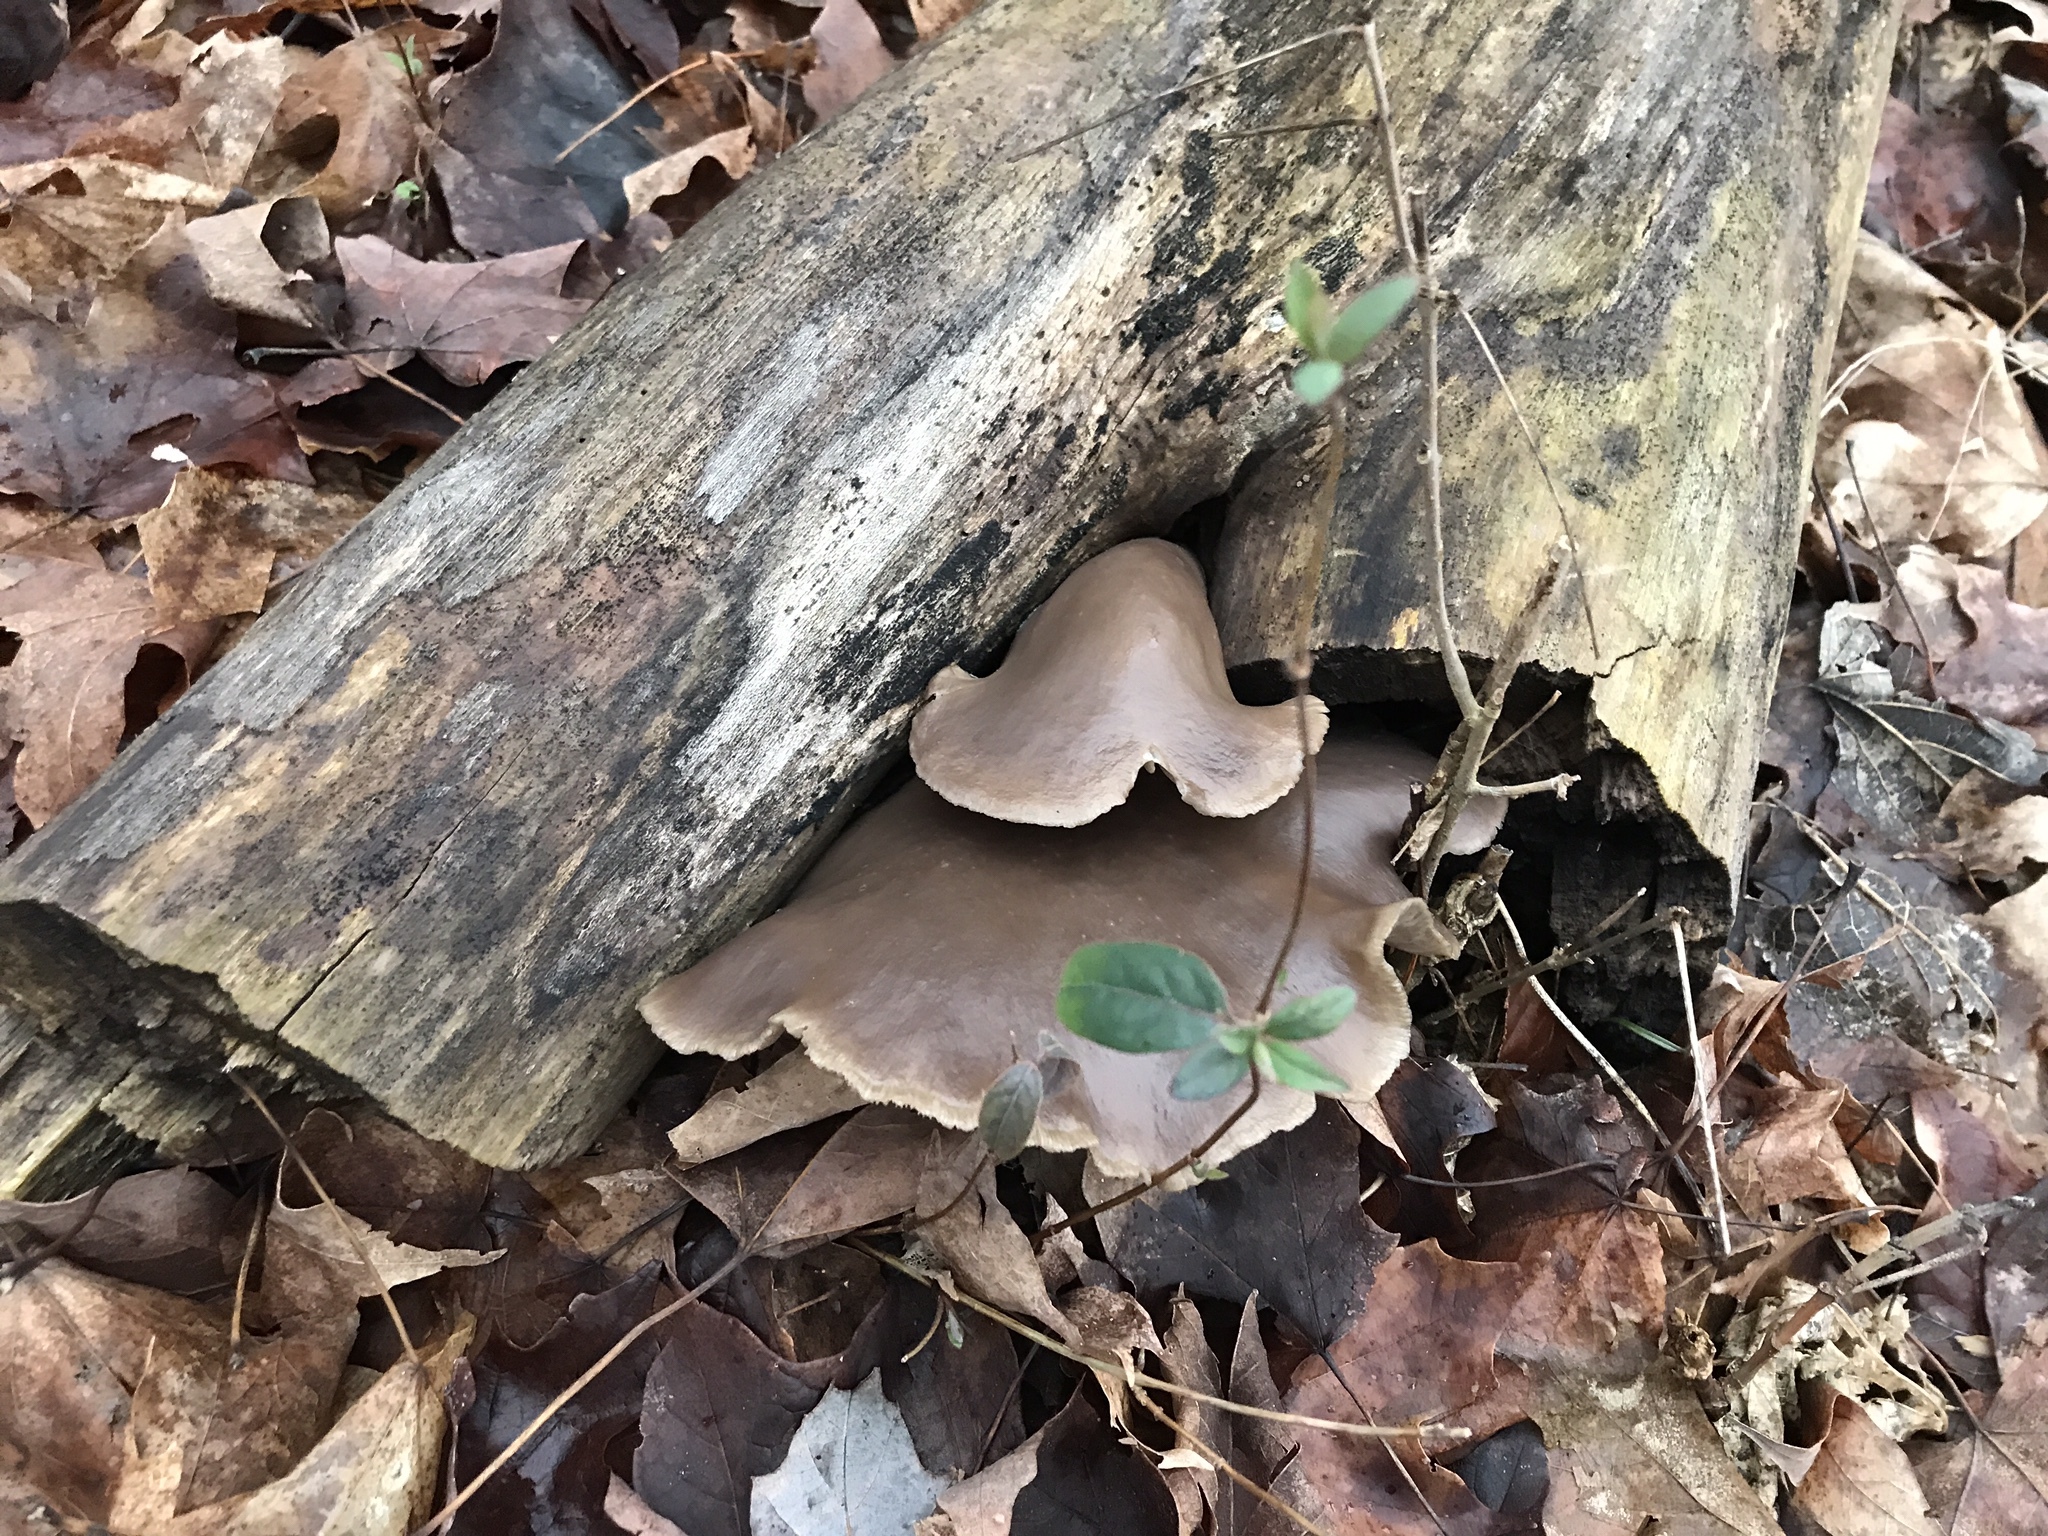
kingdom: Fungi
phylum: Basidiomycota
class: Agaricomycetes
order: Agaricales
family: Pleurotaceae
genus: Pleurotus
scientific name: Pleurotus ostreatus
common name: Oyster mushroom
